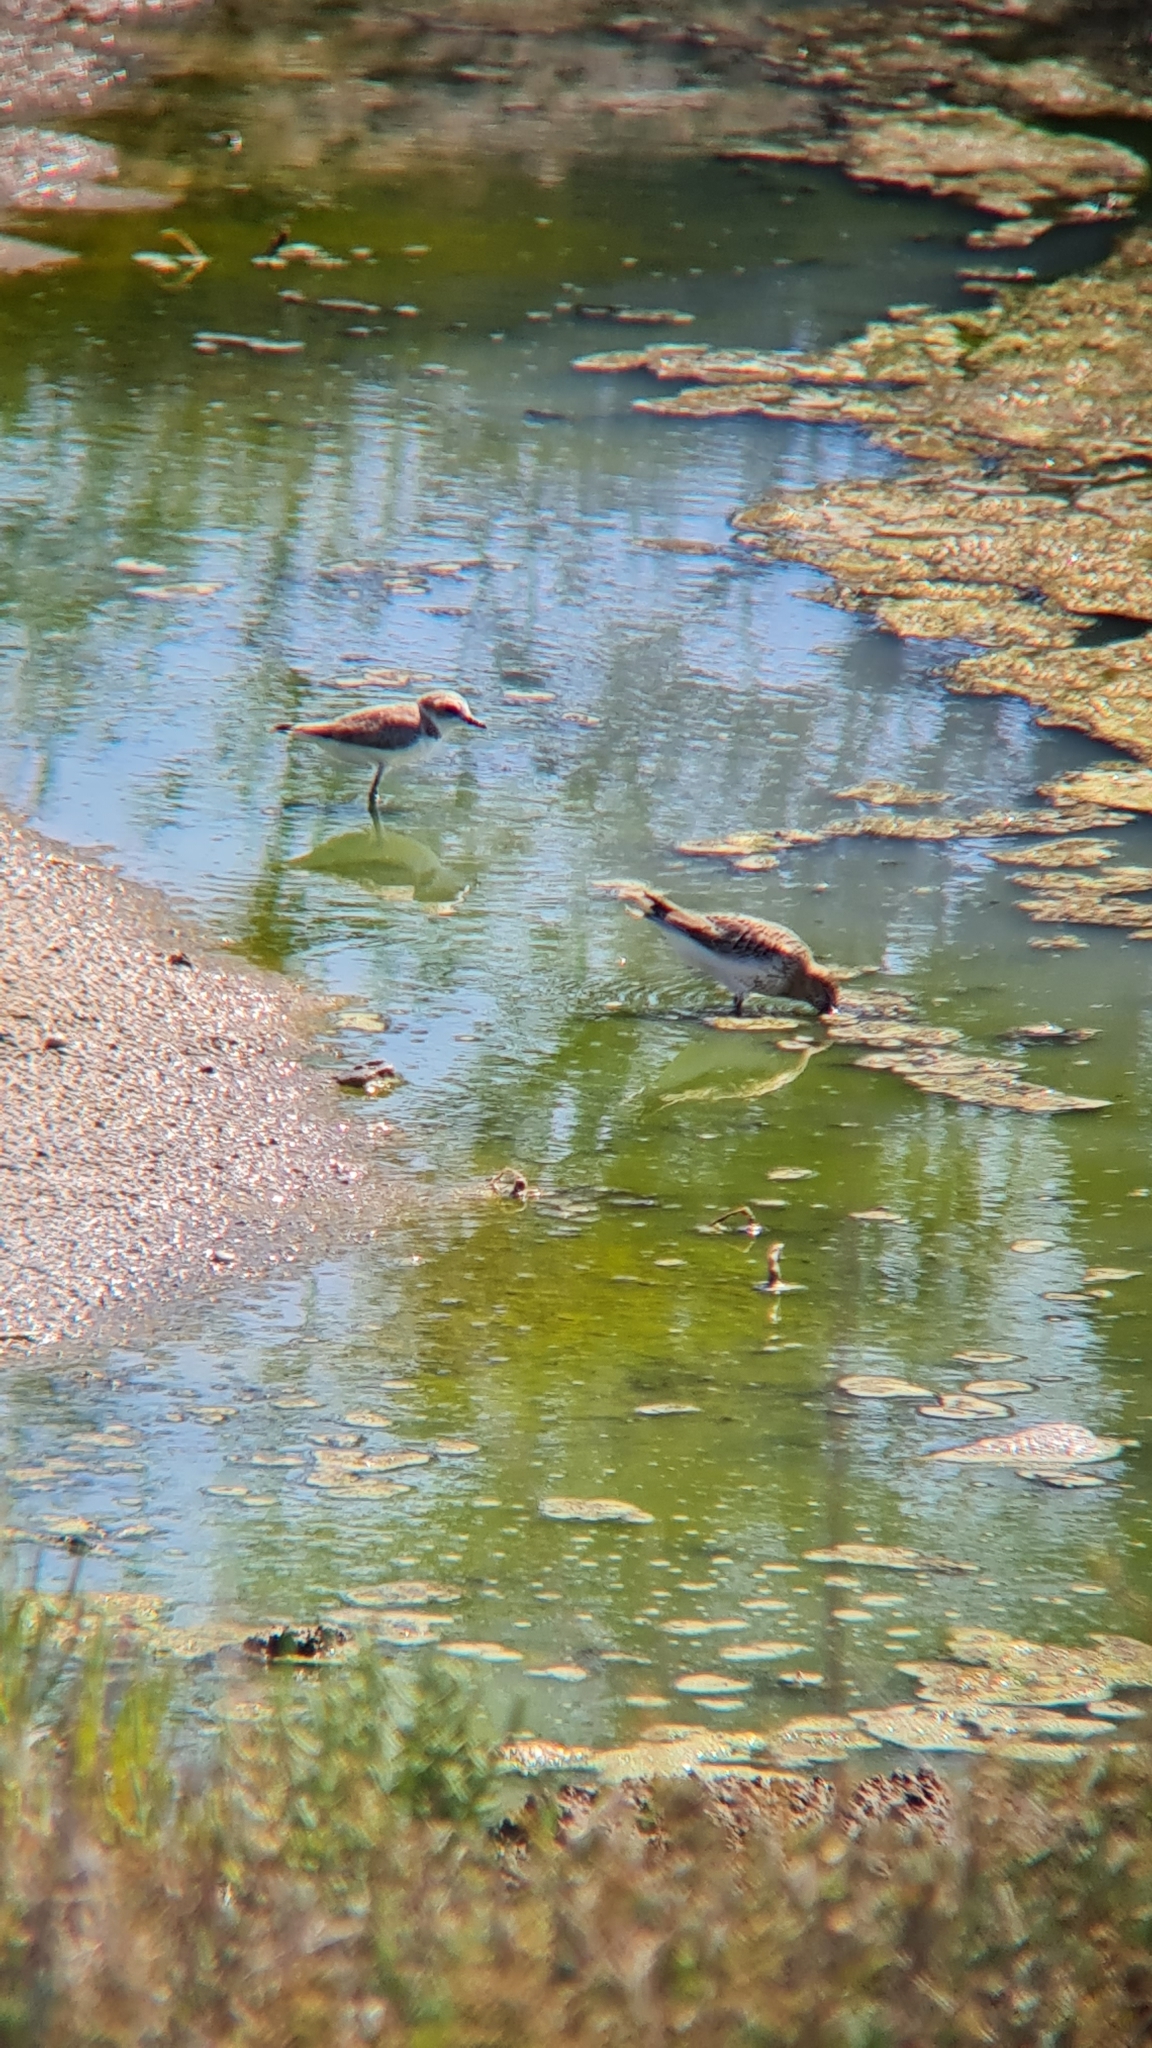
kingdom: Animalia
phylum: Chordata
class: Aves
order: Charadriiformes
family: Charadriidae
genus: Charadrius
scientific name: Charadrius alexandrinus
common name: Kentish plover
